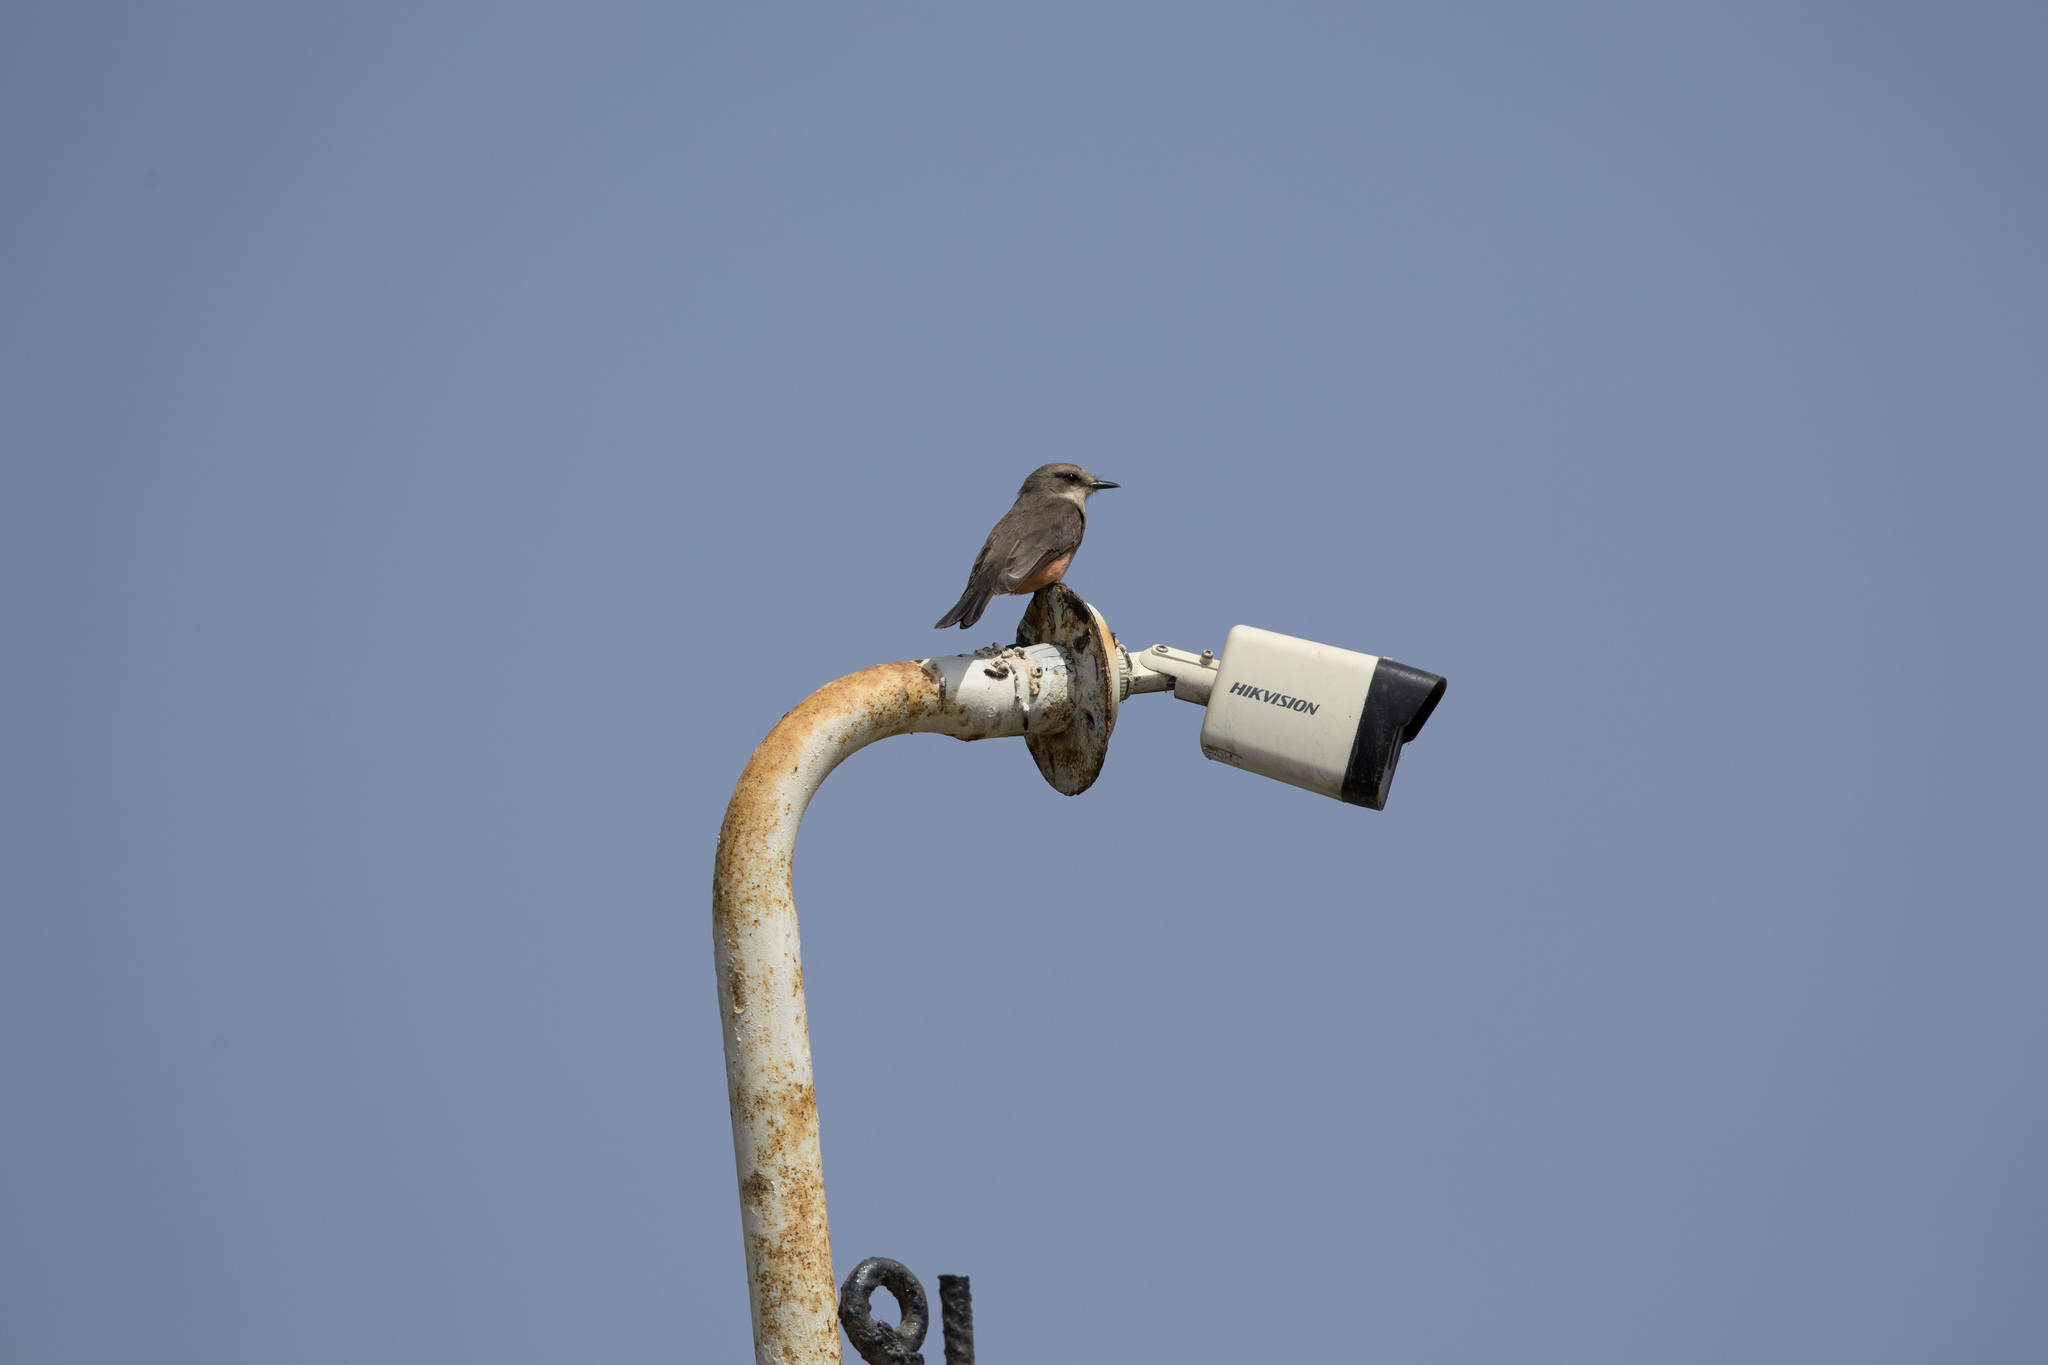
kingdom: Animalia
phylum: Chordata
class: Aves
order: Passeriformes
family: Tyrannidae
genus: Pyrocephalus
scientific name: Pyrocephalus rubinus
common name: Vermilion flycatcher
